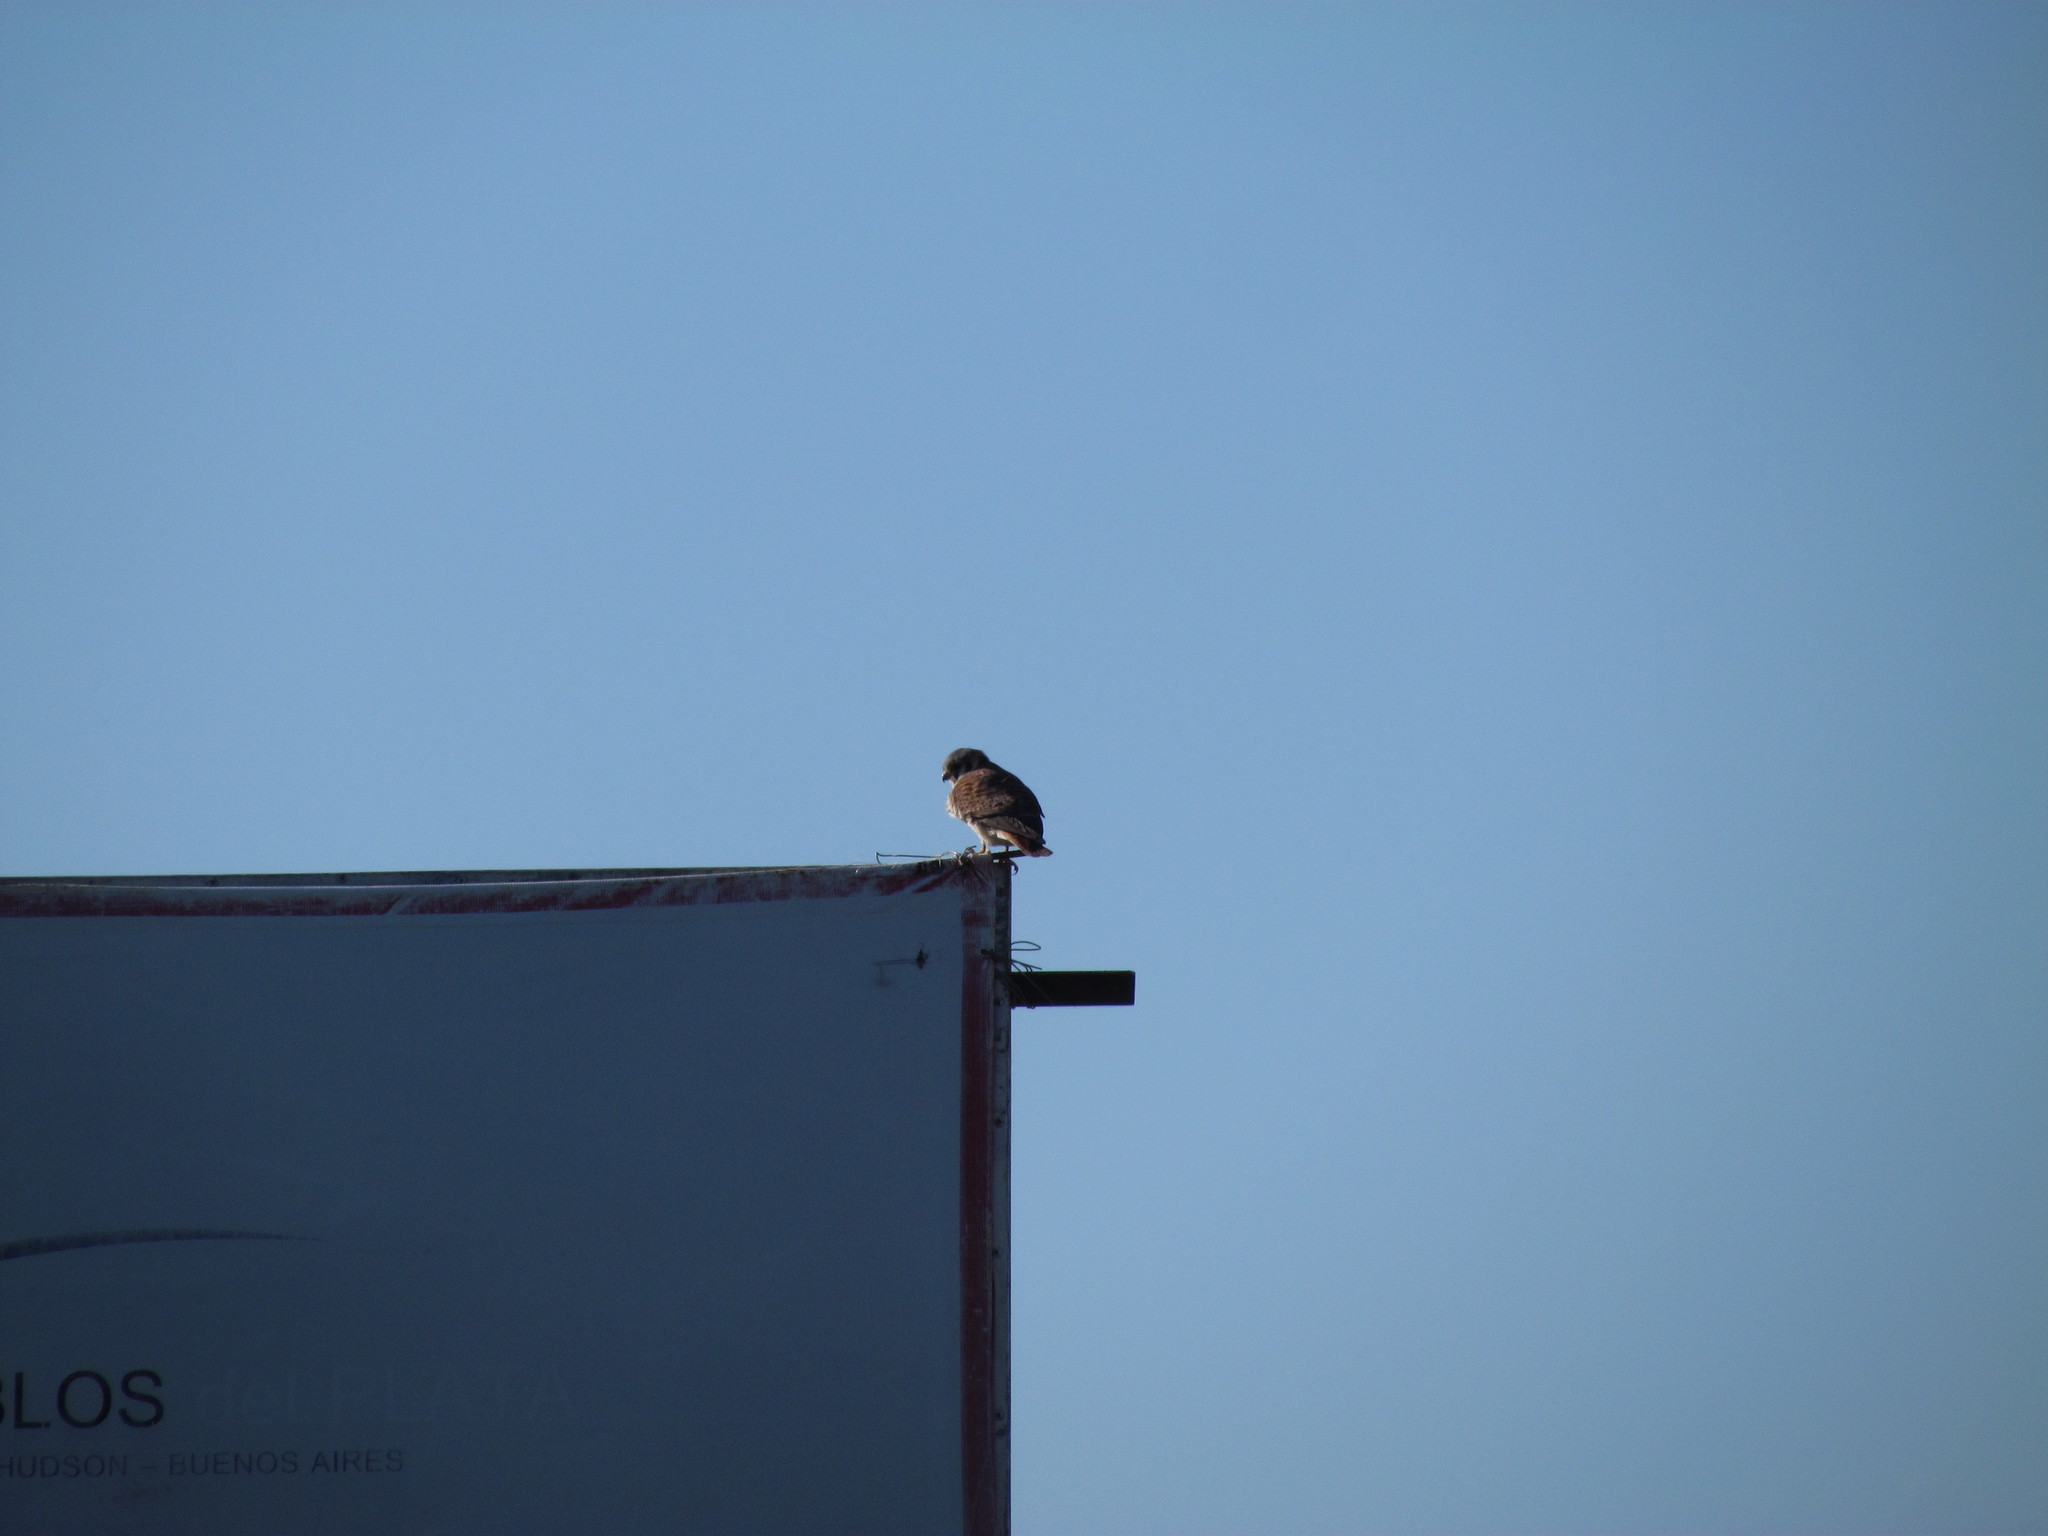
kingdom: Animalia
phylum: Chordata
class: Aves
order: Falconiformes
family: Falconidae
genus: Falco
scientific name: Falco sparverius
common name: American kestrel
